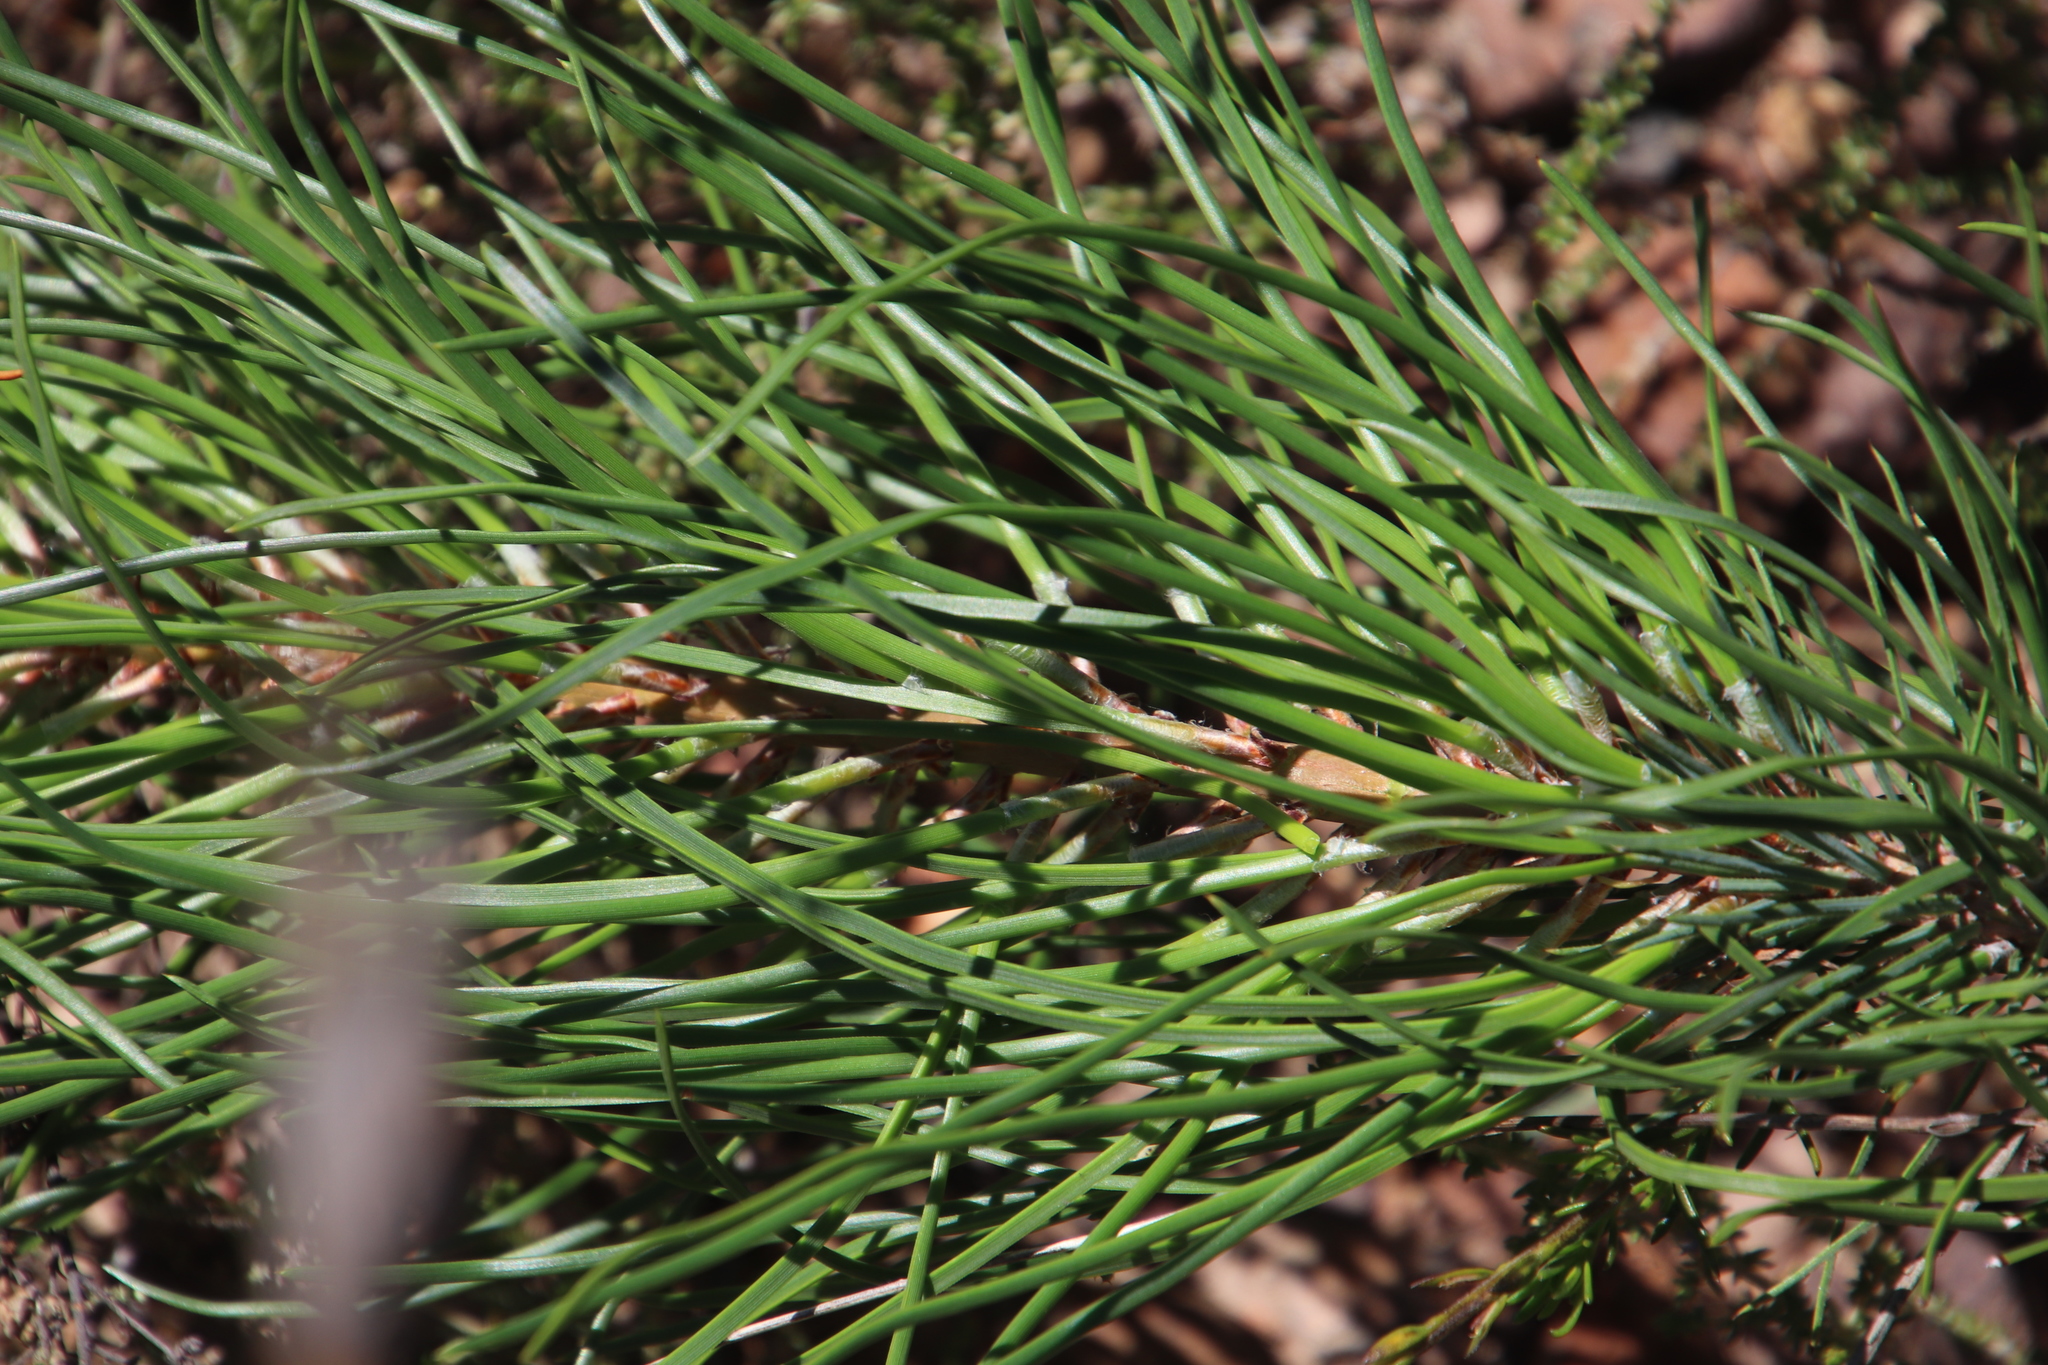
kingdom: Plantae
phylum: Tracheophyta
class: Pinopsida
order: Pinales
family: Pinaceae
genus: Pinus
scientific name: Pinus pinaster
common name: Maritime pine
